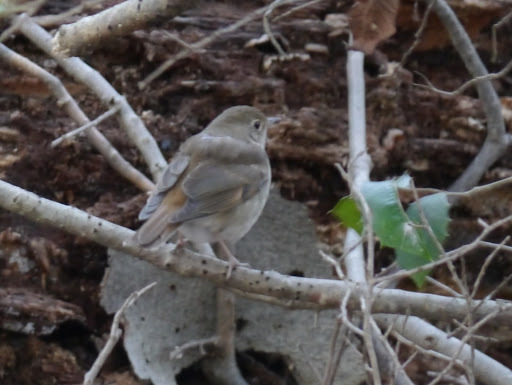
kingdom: Animalia
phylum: Chordata
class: Aves
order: Passeriformes
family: Turdidae
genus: Catharus
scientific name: Catharus guttatus
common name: Hermit thrush
